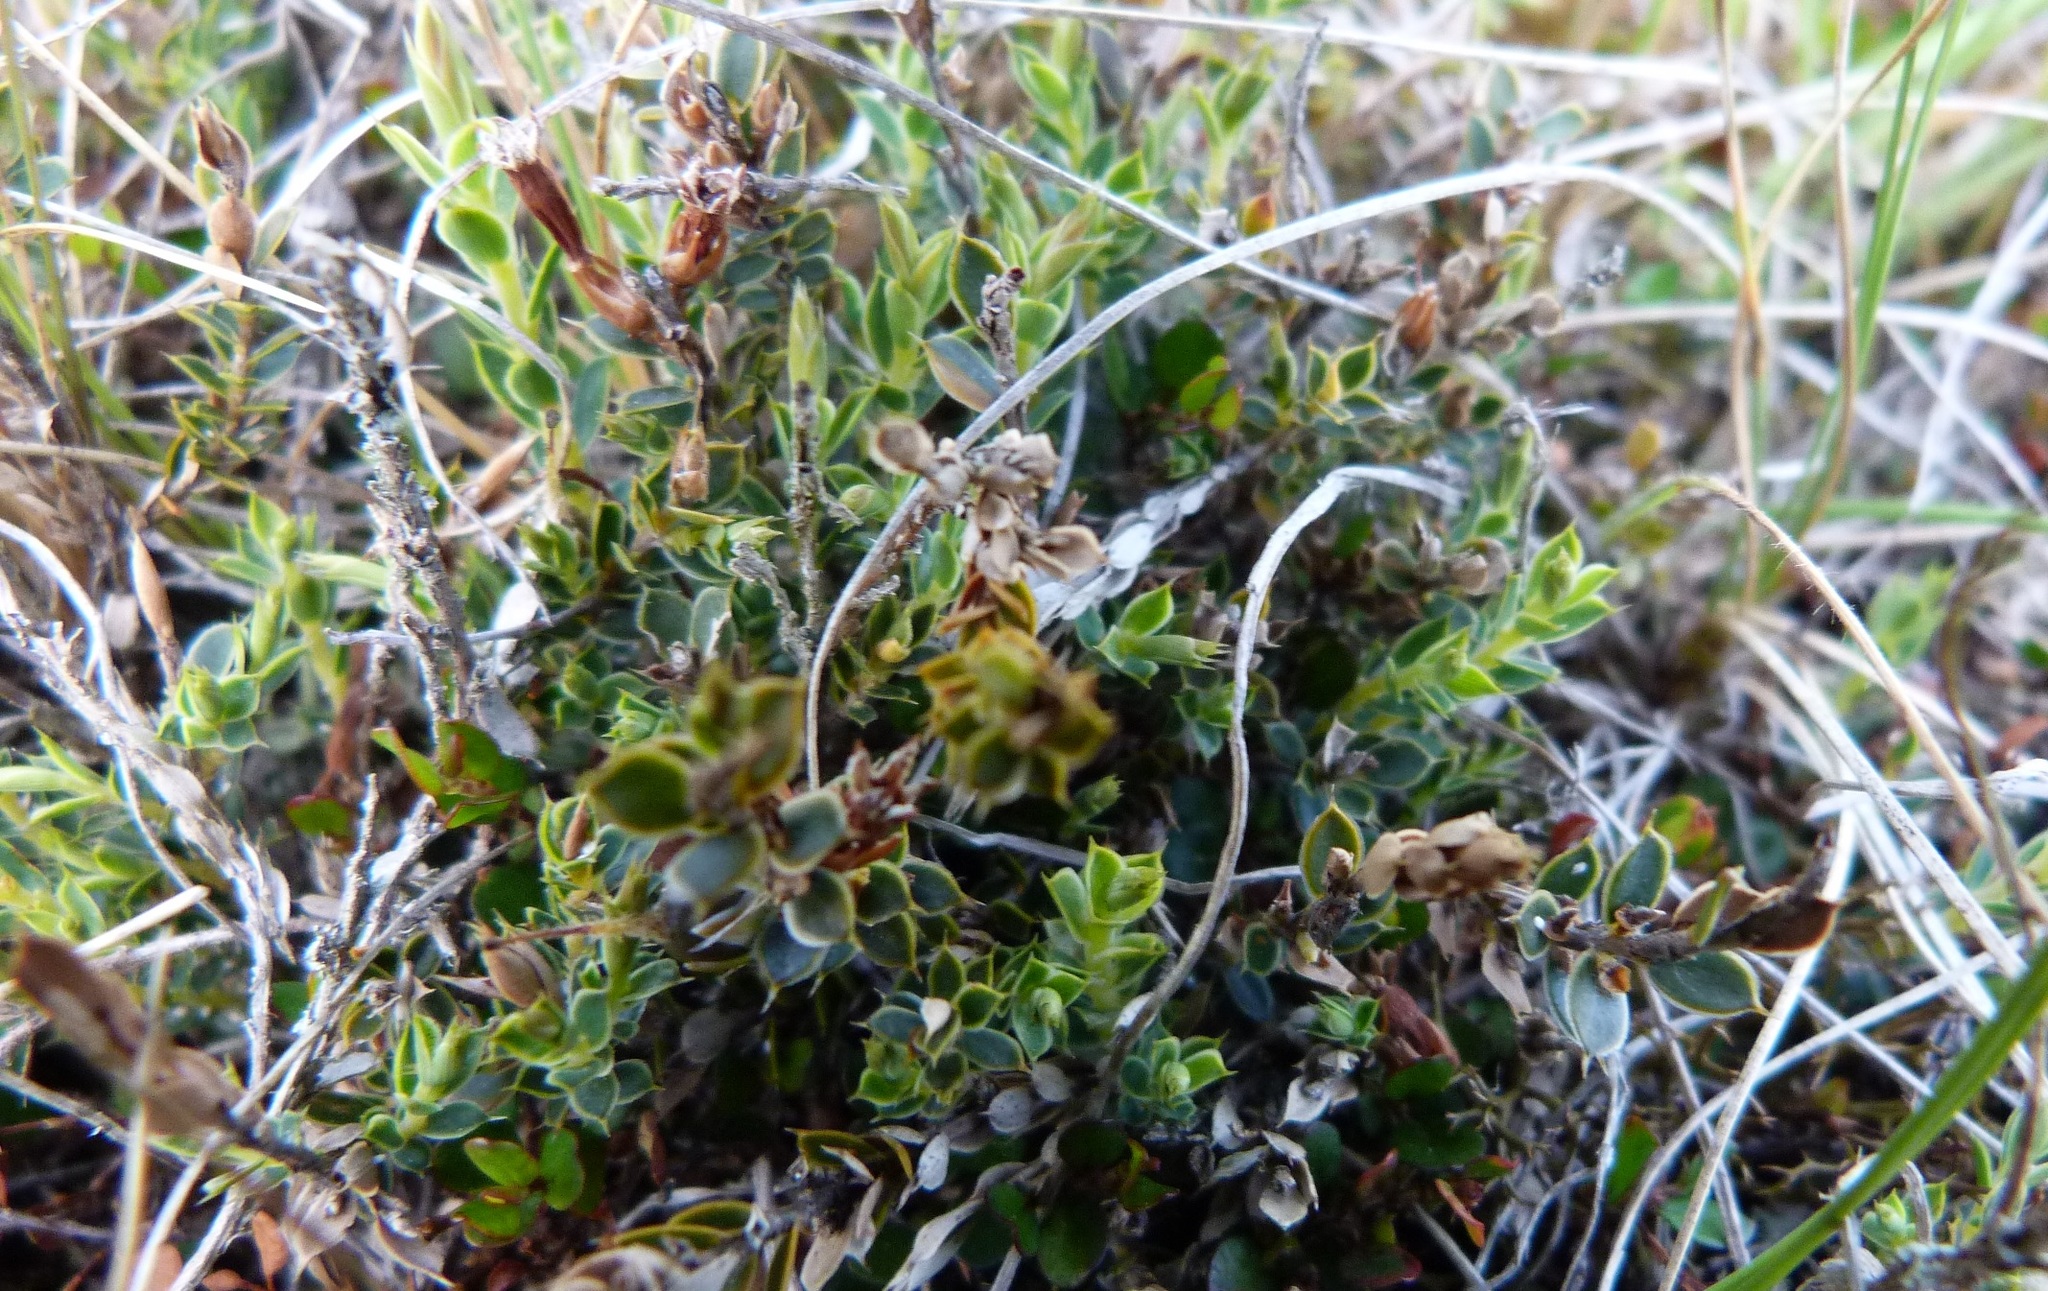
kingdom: Plantae
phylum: Tracheophyta
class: Magnoliopsida
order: Ericales
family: Ericaceae
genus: Styphelia
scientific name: Styphelia nesophila
